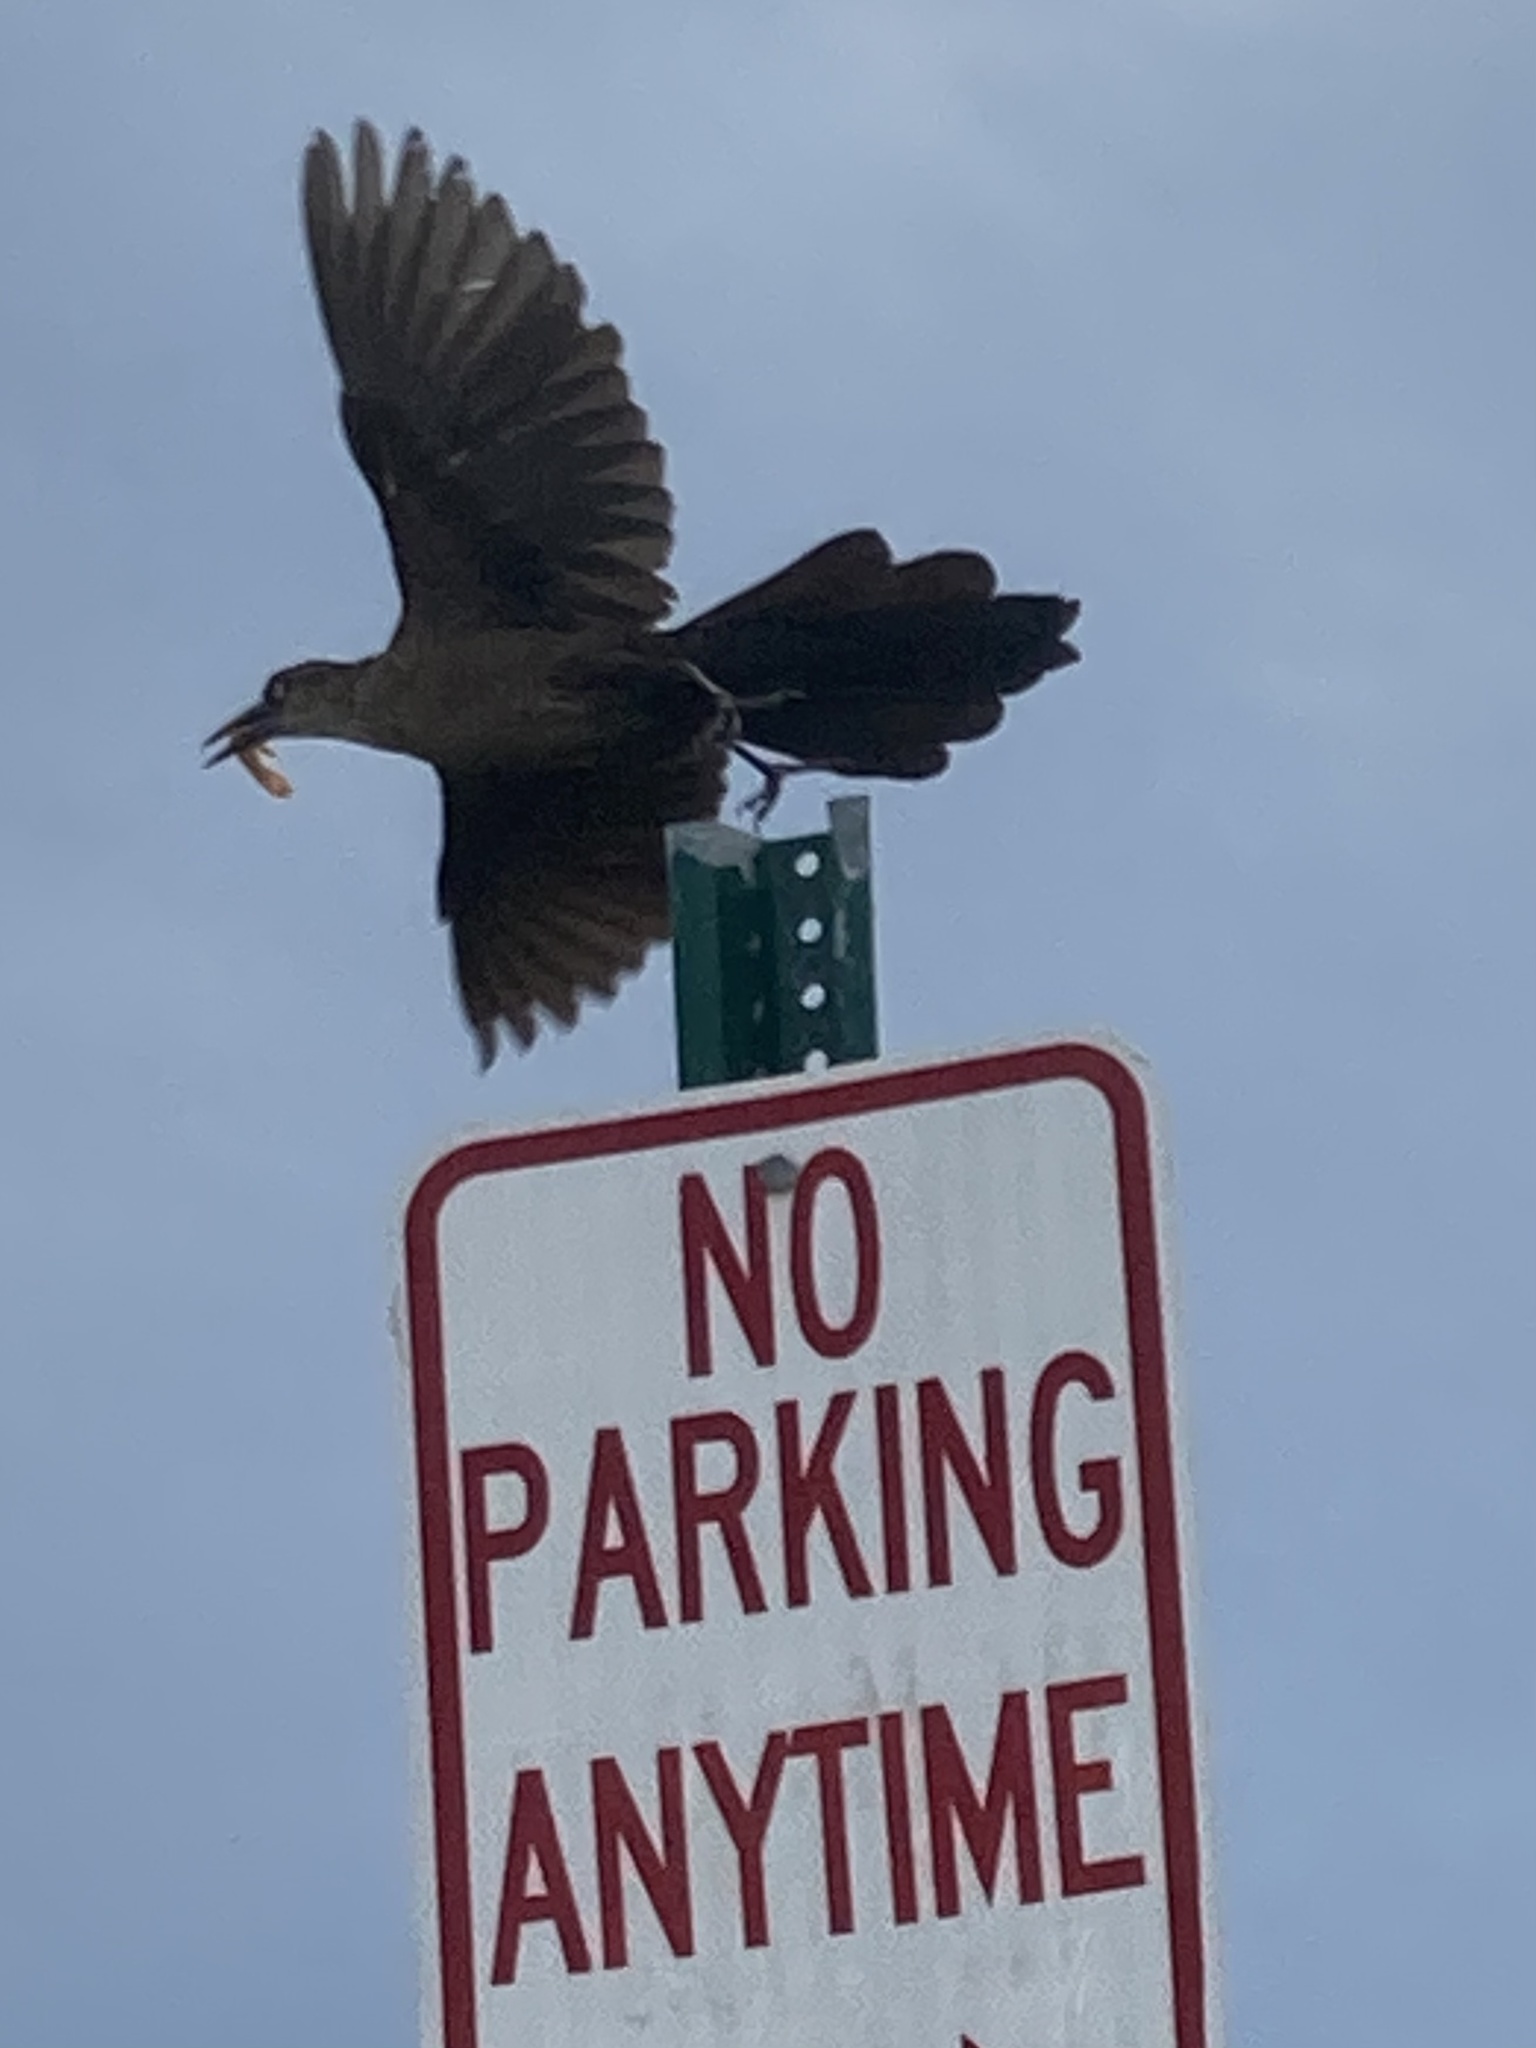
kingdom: Animalia
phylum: Chordata
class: Aves
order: Passeriformes
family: Icteridae
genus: Quiscalus
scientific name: Quiscalus mexicanus
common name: Great-tailed grackle
